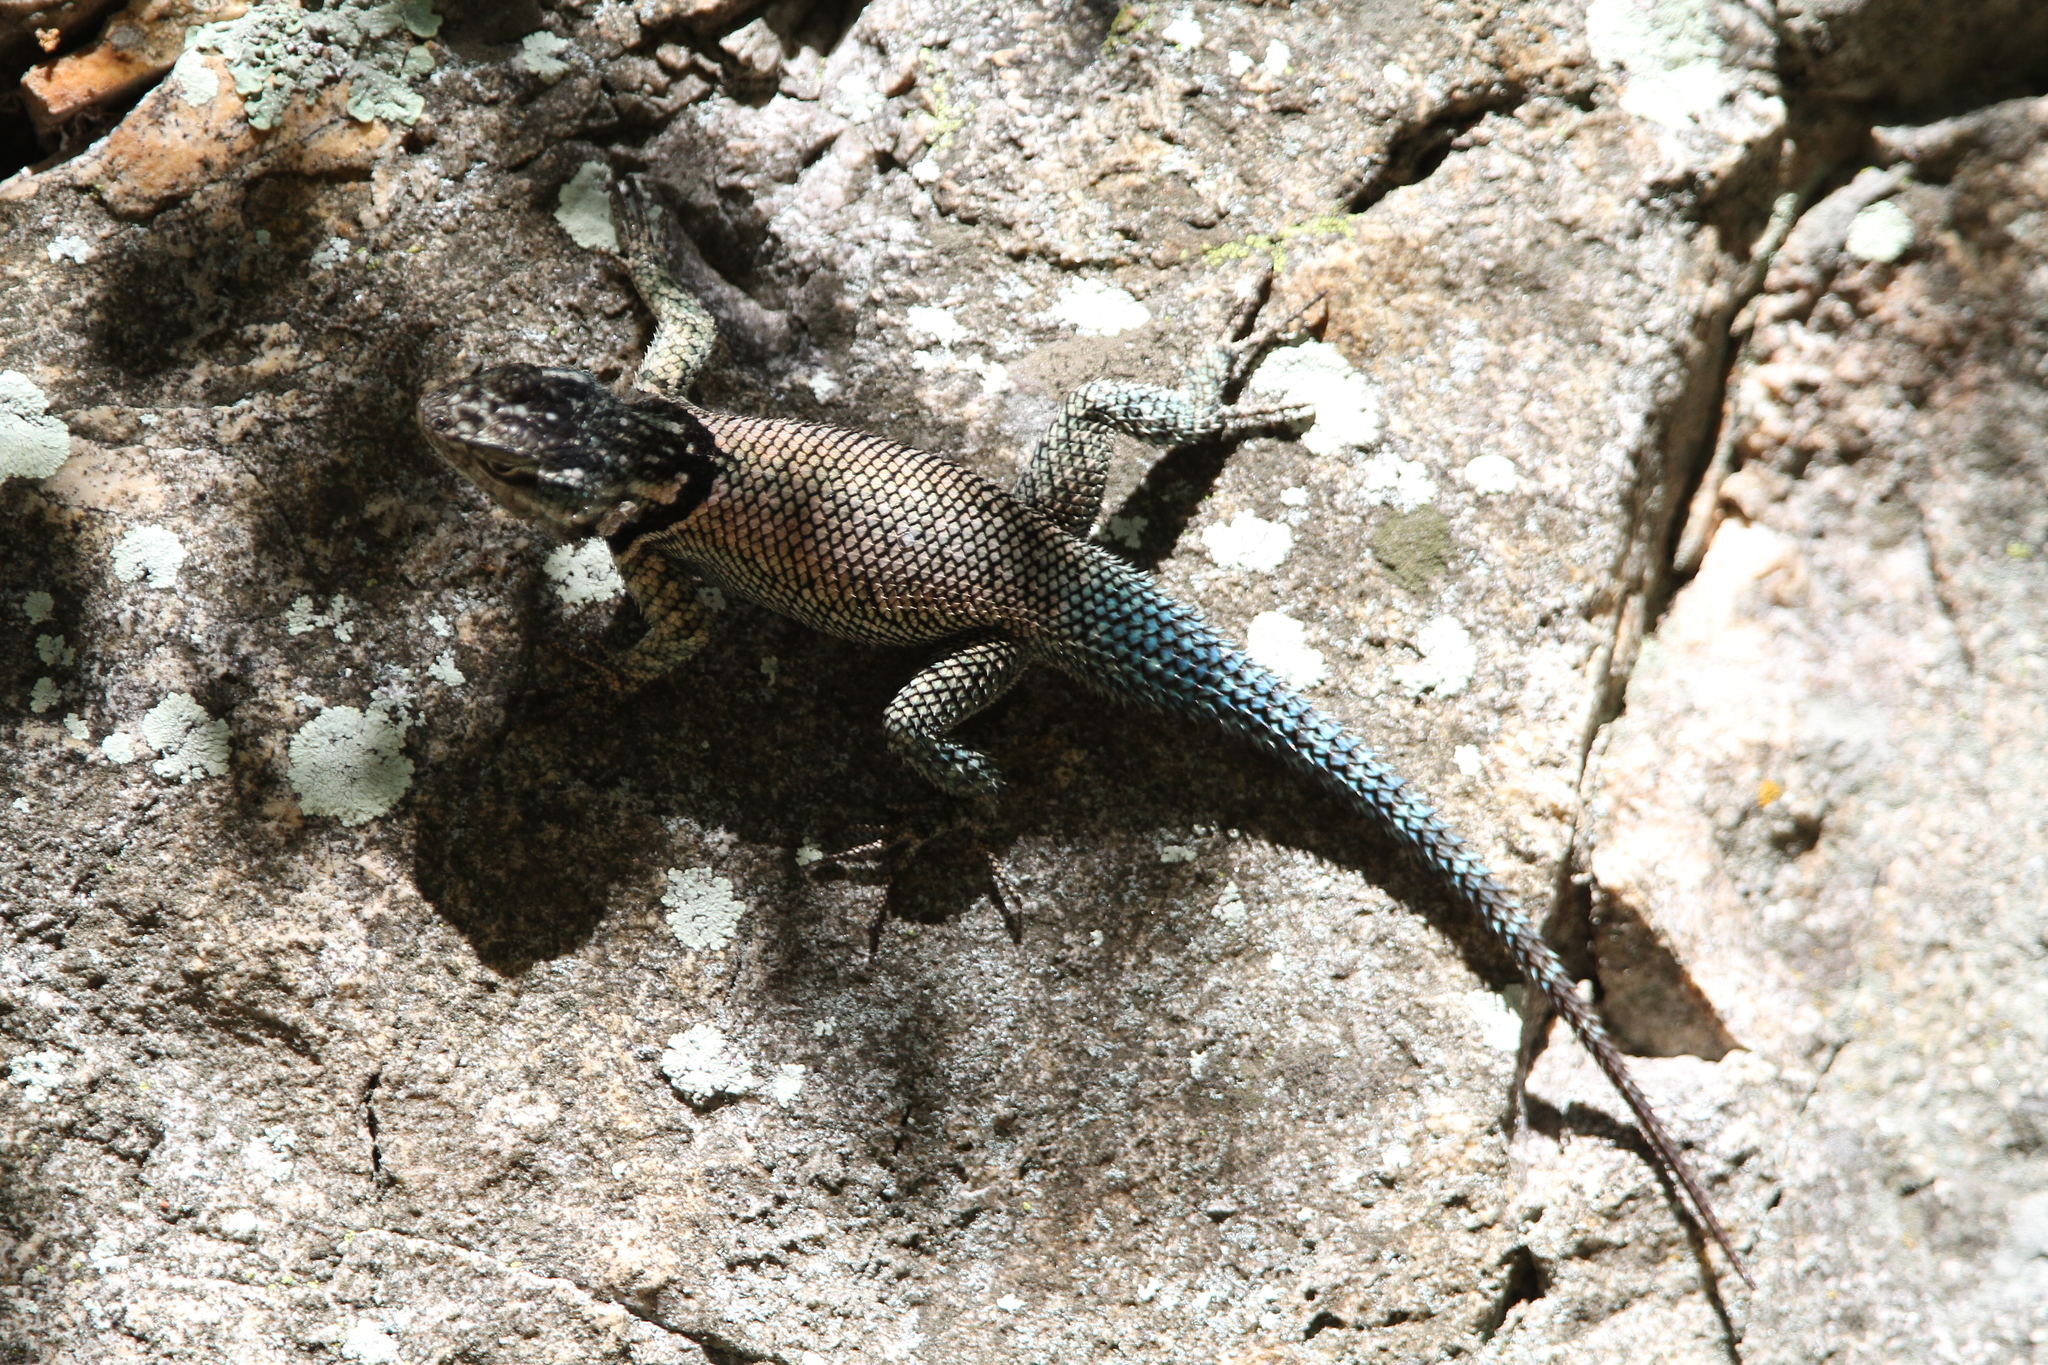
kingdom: Animalia
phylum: Chordata
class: Squamata
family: Phrynosomatidae
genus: Sceloporus
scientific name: Sceloporus jarrovii
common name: Yarrow's spiny lizard
